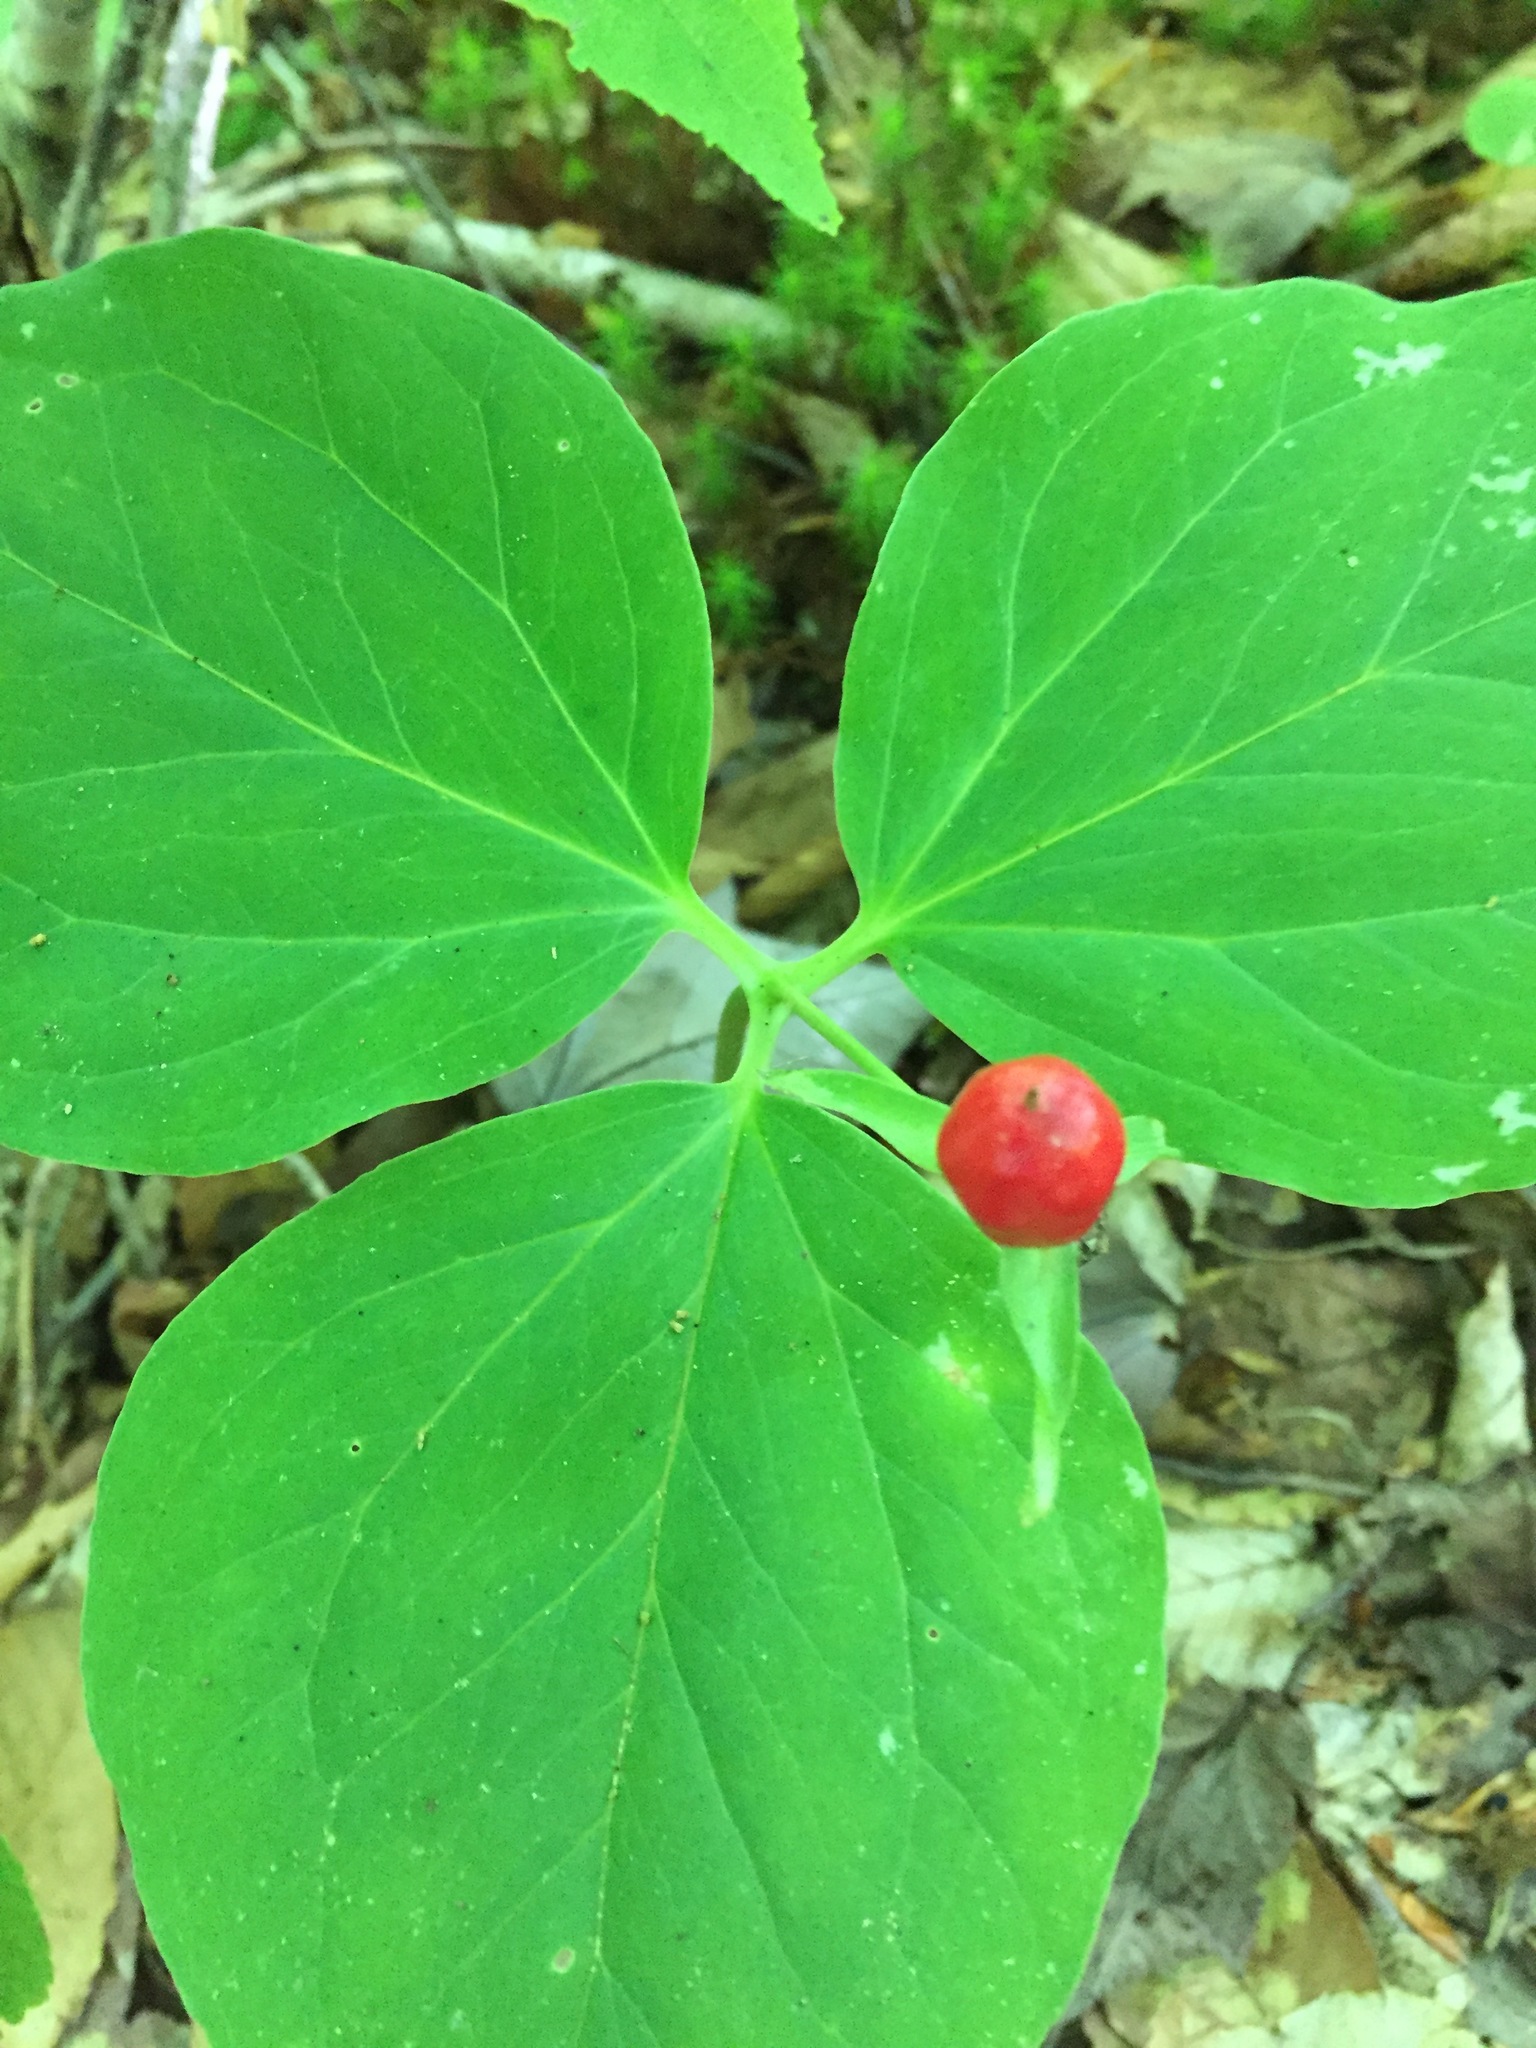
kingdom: Plantae
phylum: Tracheophyta
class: Liliopsida
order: Liliales
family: Melanthiaceae
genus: Trillium
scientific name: Trillium undulatum
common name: Paint trillium
